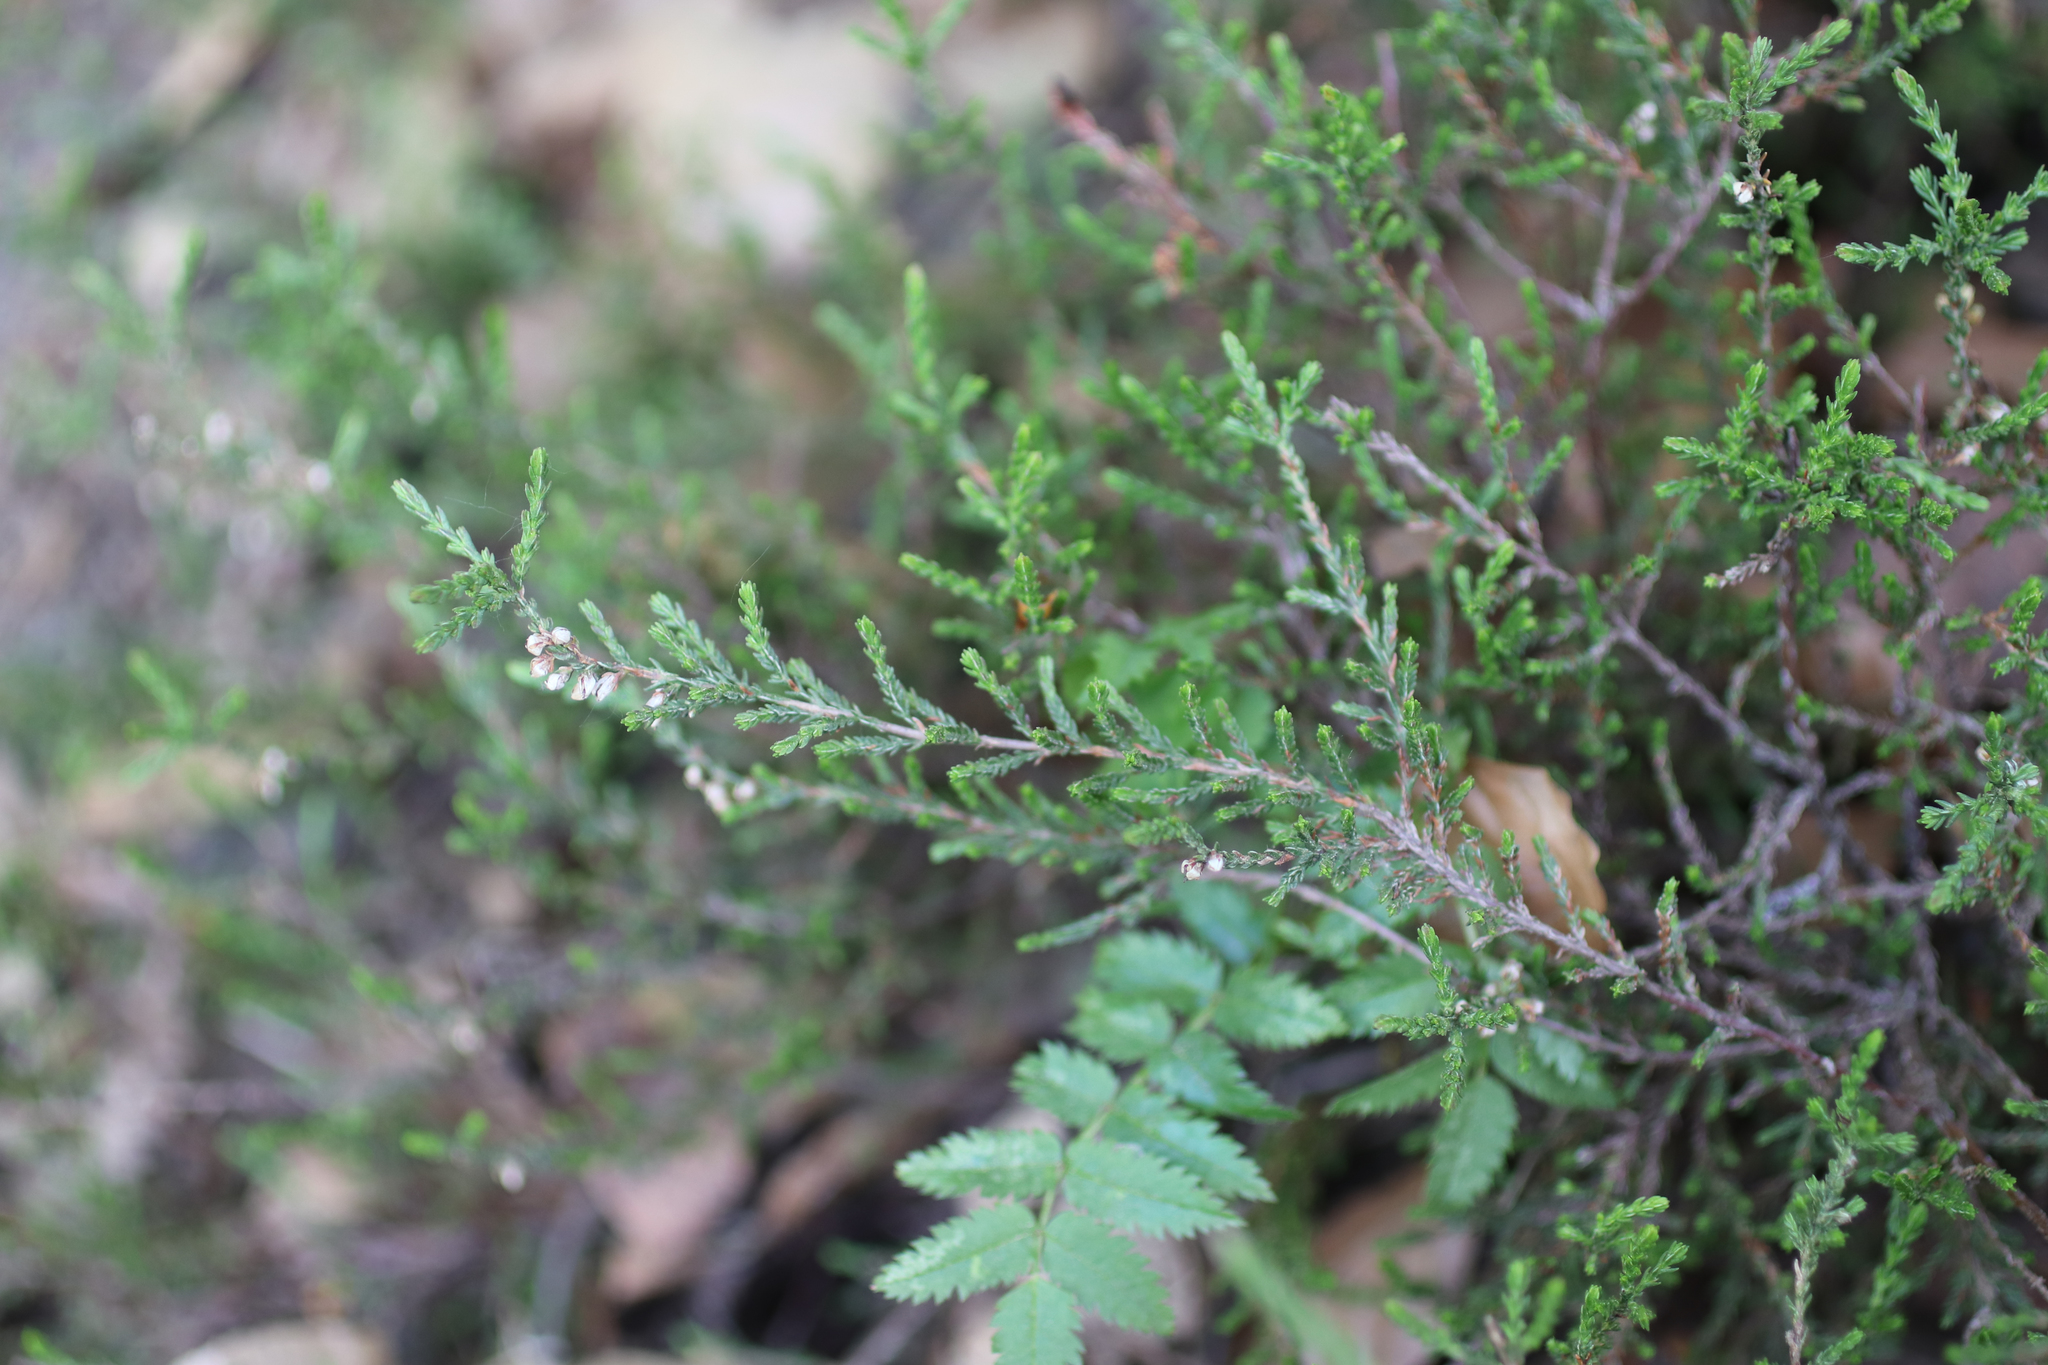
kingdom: Plantae
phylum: Tracheophyta
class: Magnoliopsida
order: Ericales
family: Ericaceae
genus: Calluna
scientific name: Calluna vulgaris
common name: Heather
